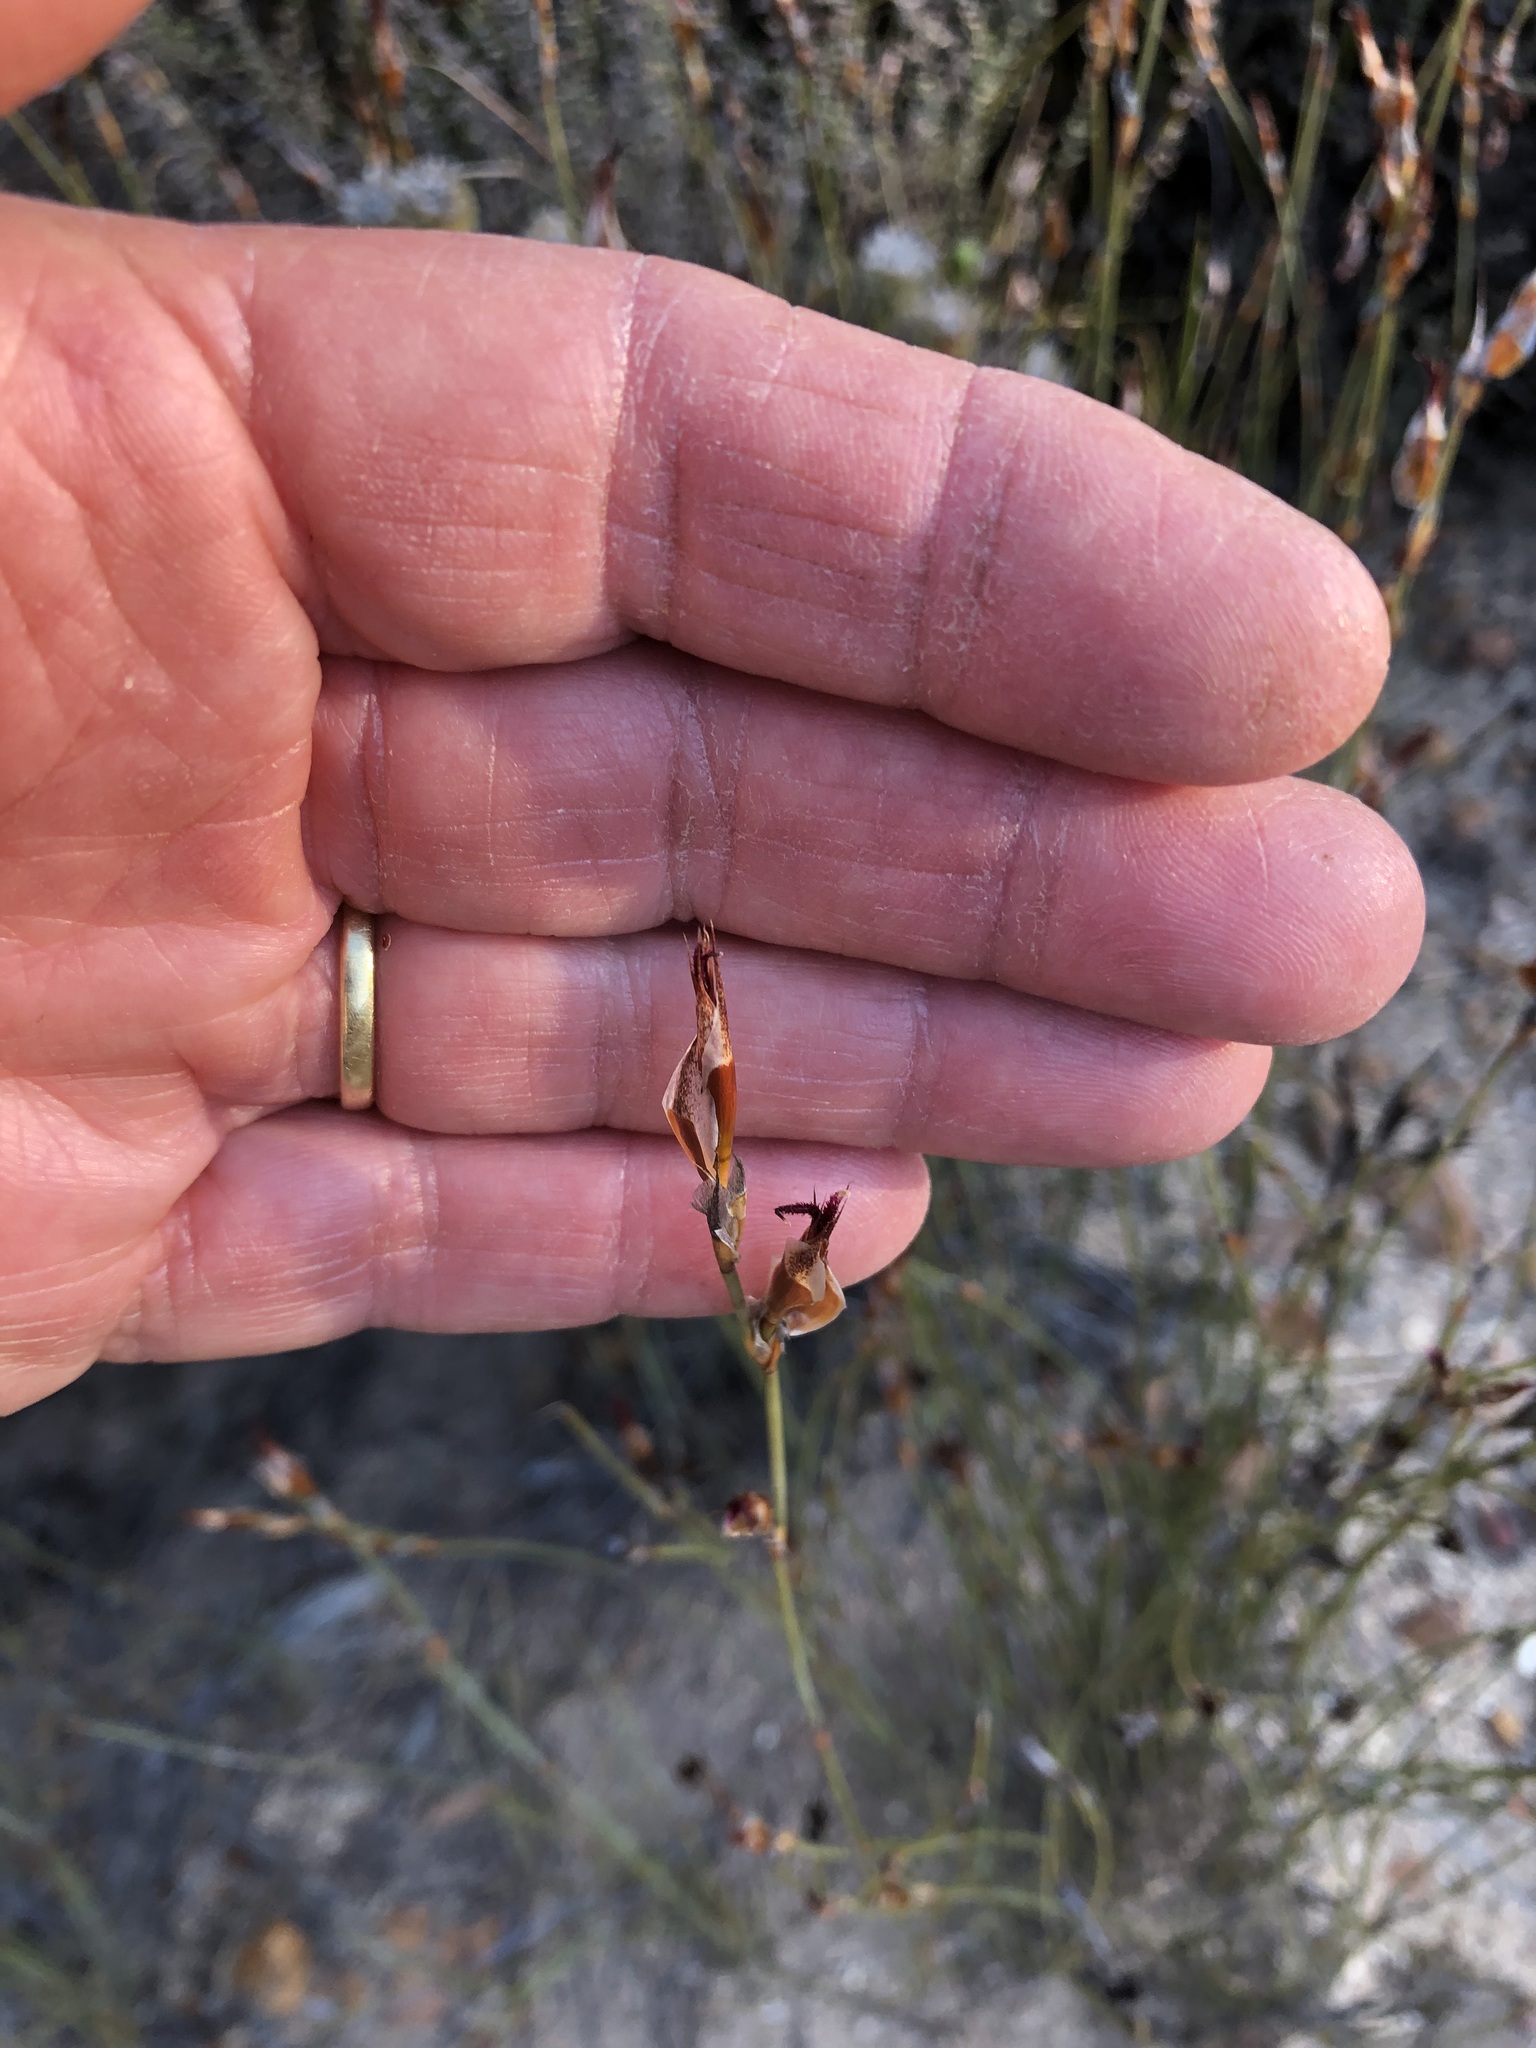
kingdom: Plantae
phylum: Tracheophyta
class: Liliopsida
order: Poales
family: Restionaceae
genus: Willdenowia
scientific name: Willdenowia incurvata
